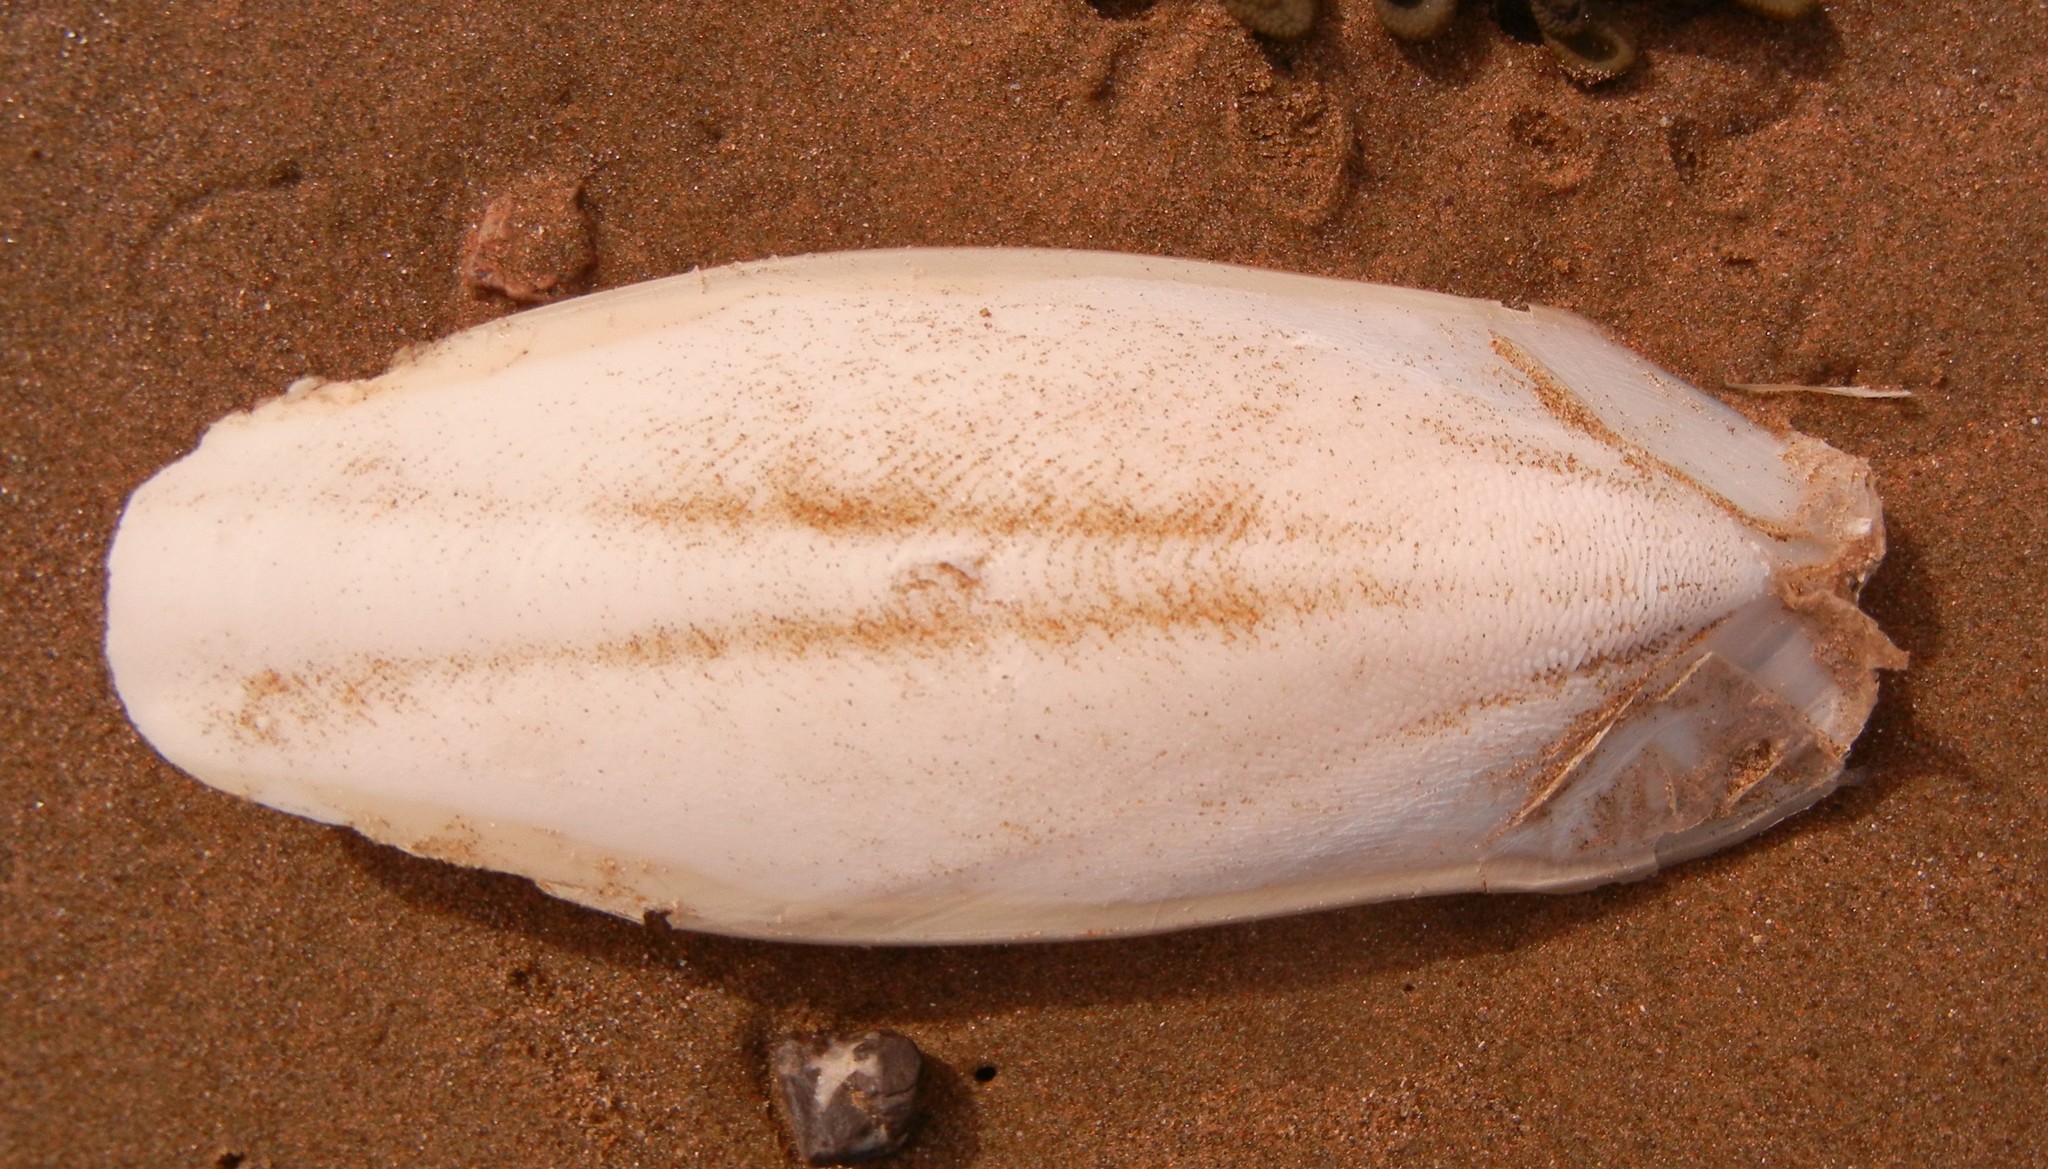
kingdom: Animalia
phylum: Mollusca
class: Cephalopoda
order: Sepiida
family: Sepiidae
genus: Sepia
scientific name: Sepia officinalis
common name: Common cuttlefish
